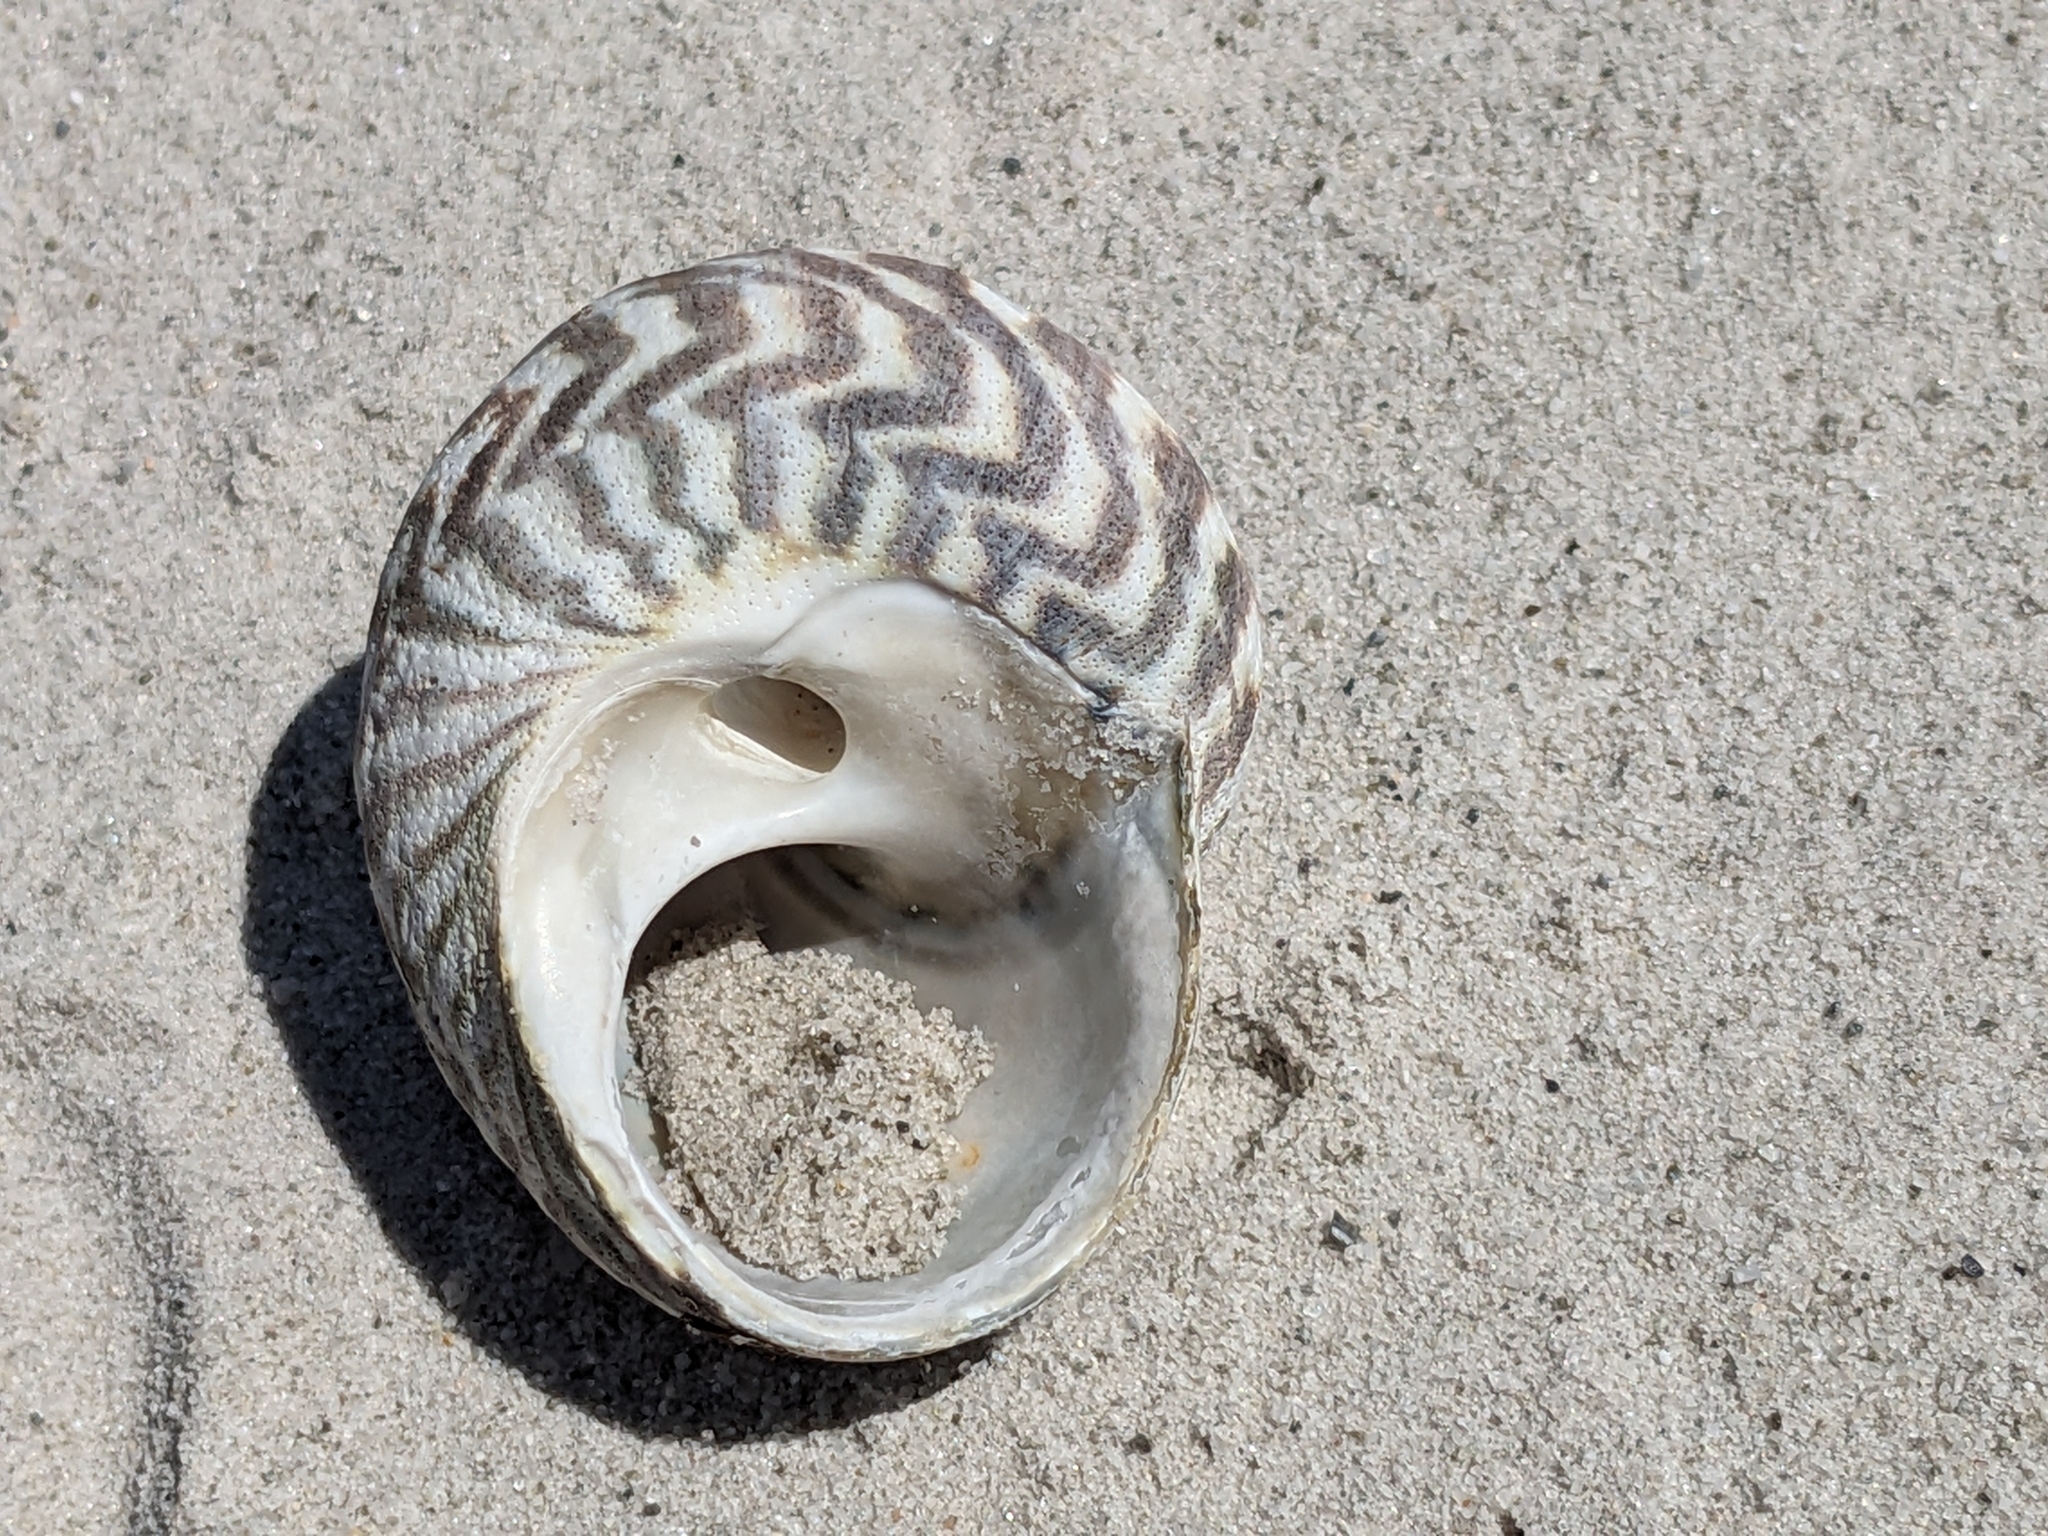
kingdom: Animalia
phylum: Mollusca
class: Gastropoda
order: Trochida
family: Turbinidae
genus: Lunella
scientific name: Lunella undulata
